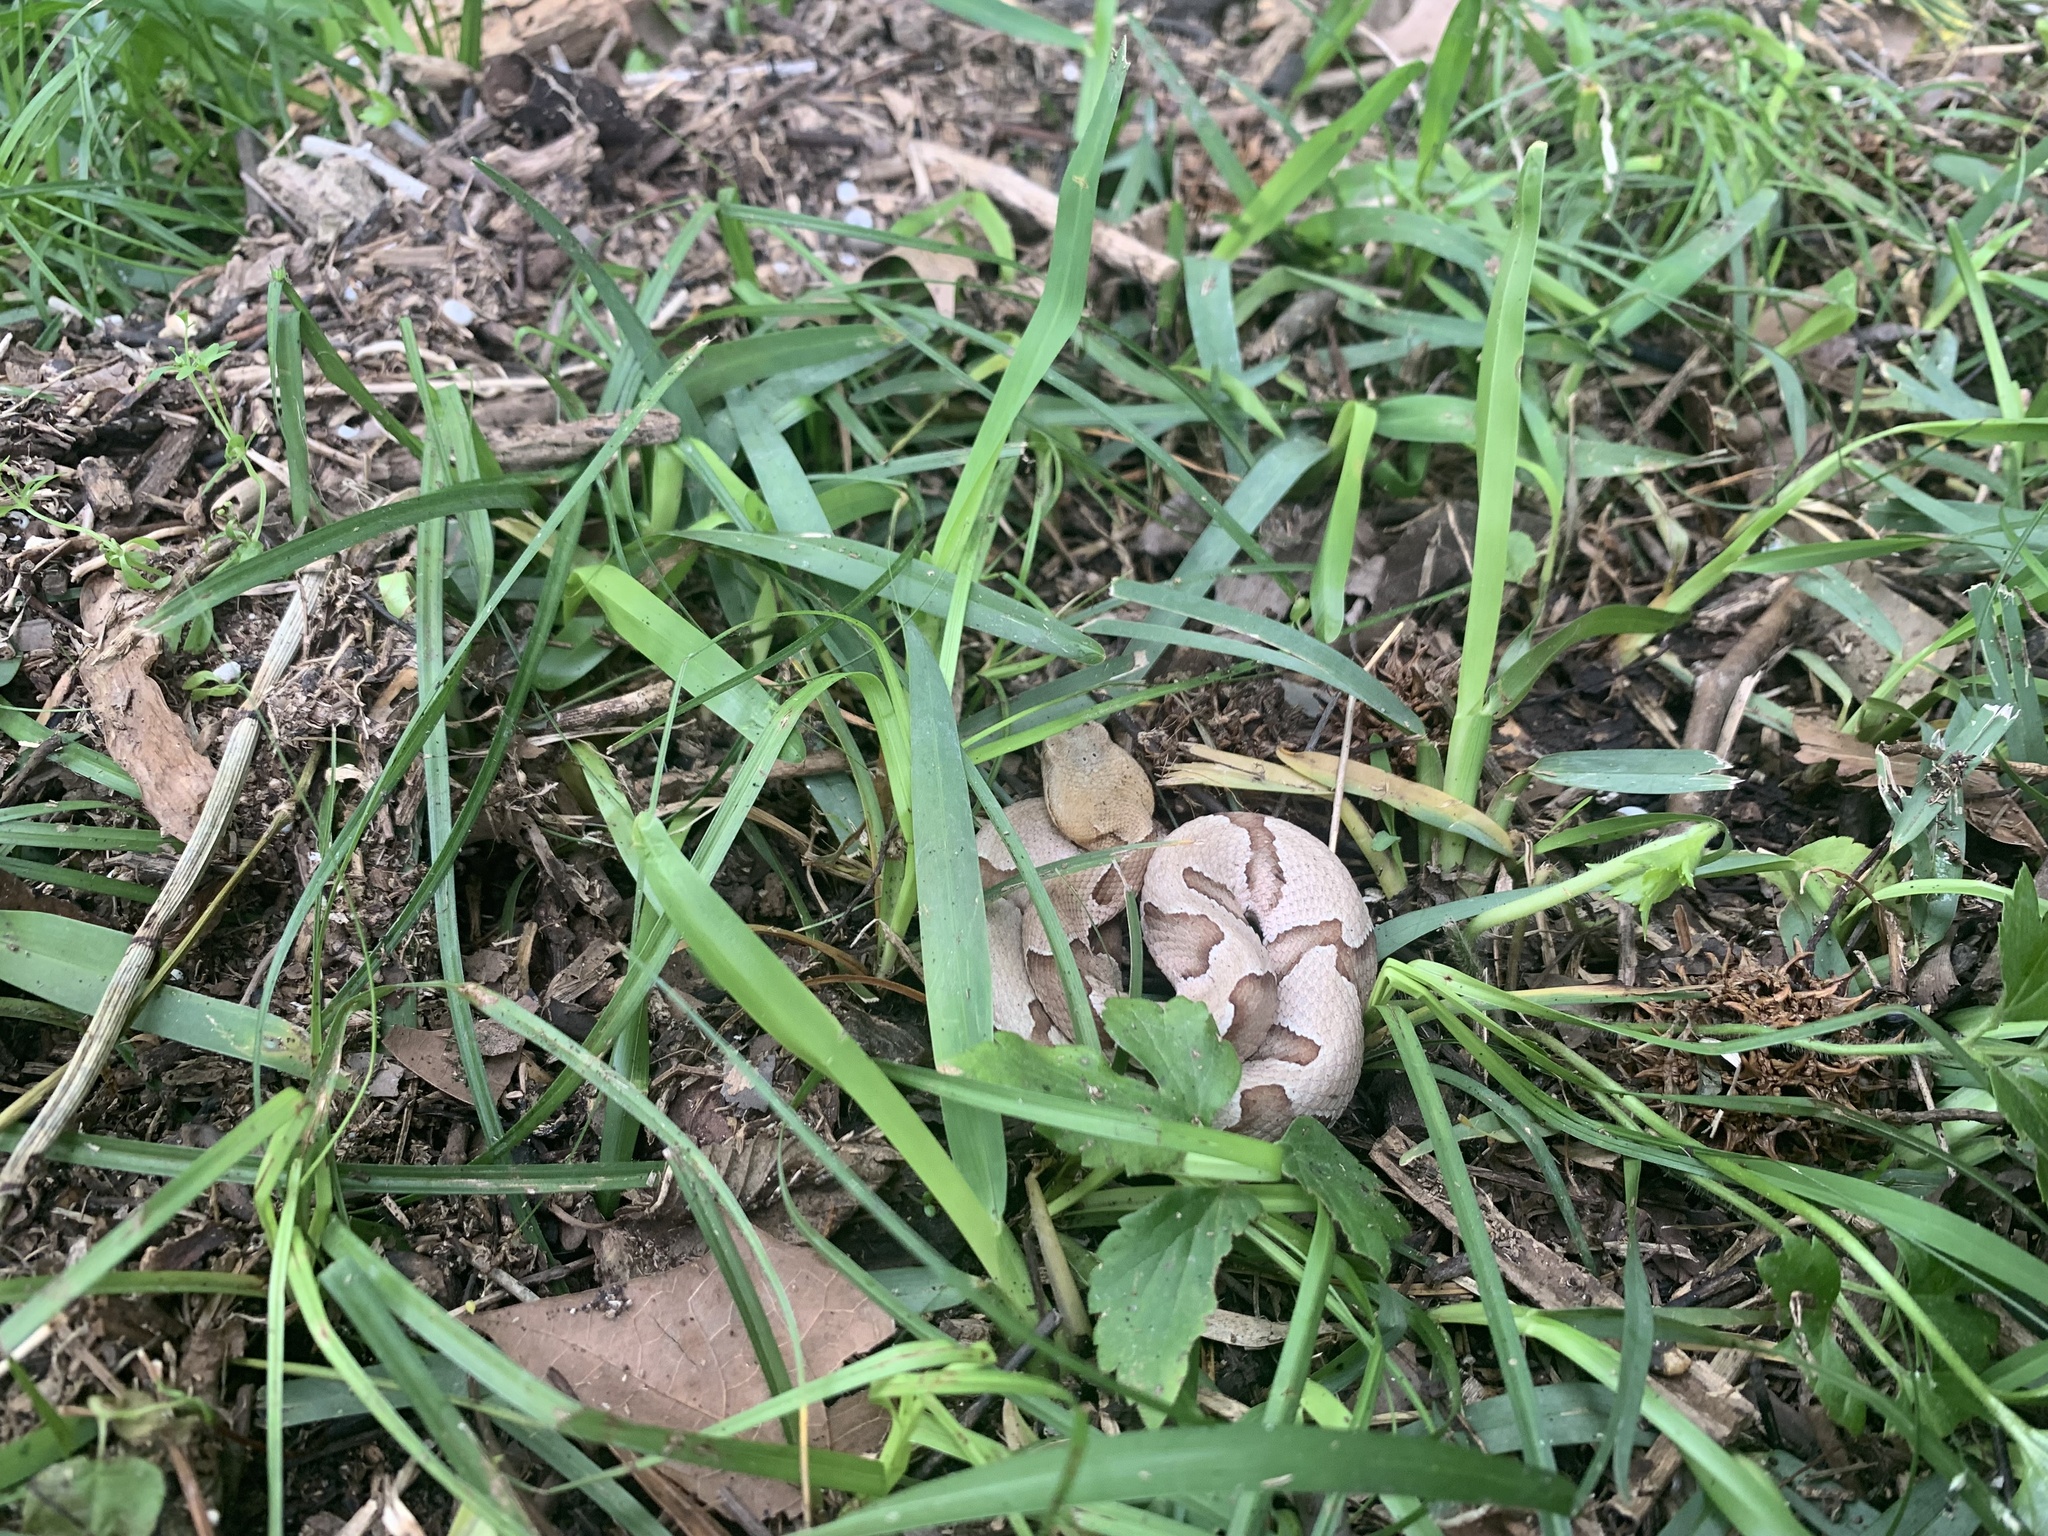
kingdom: Animalia
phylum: Chordata
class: Squamata
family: Viperidae
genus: Agkistrodon
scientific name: Agkistrodon contortrix
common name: Northern copperhead
